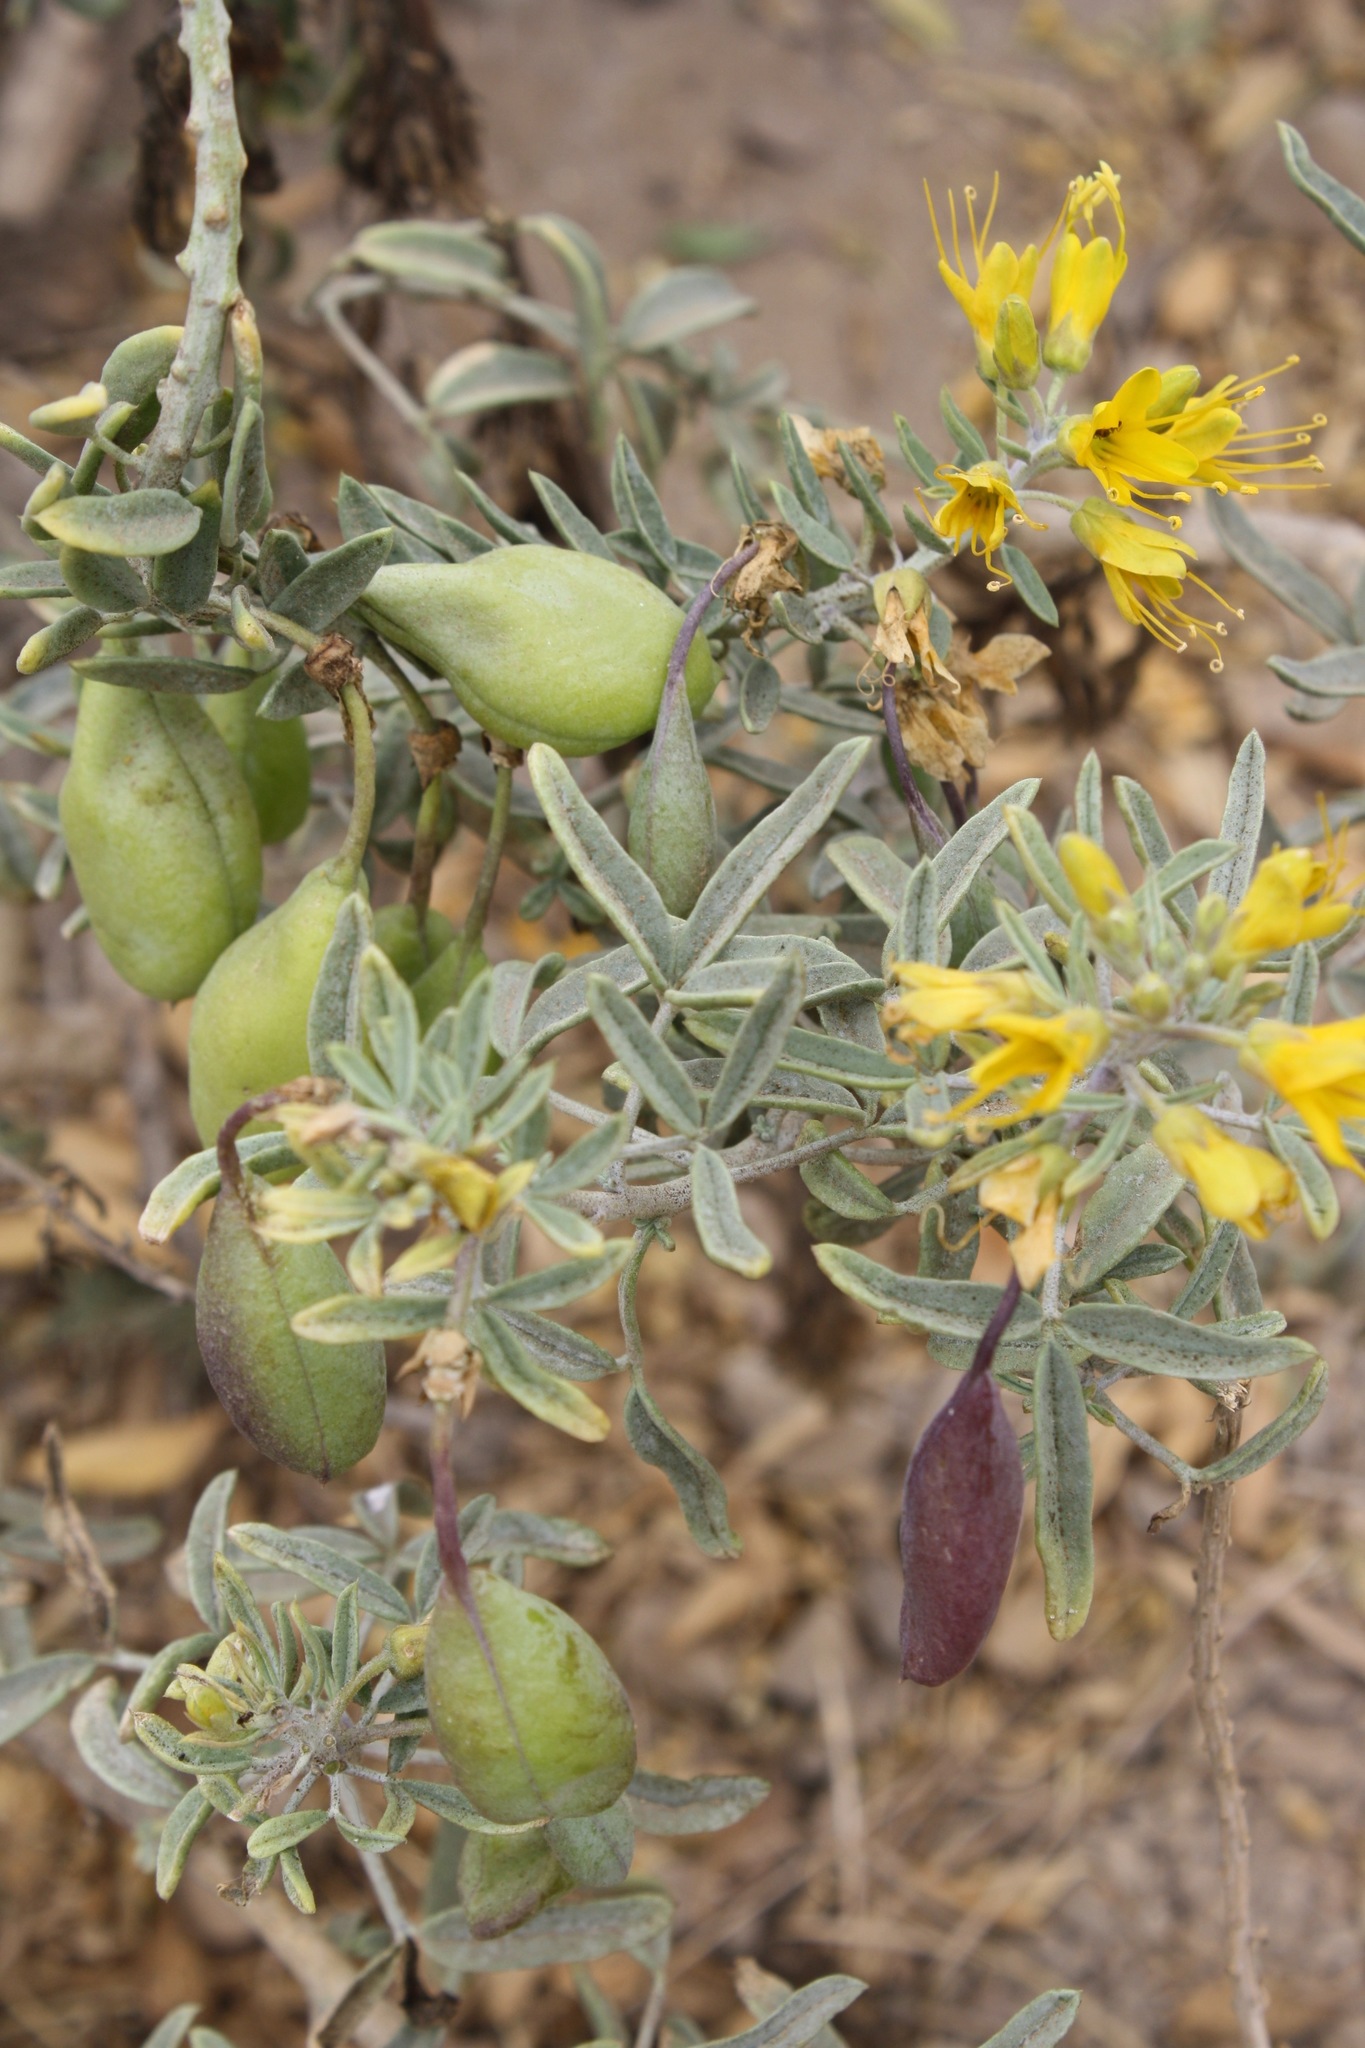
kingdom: Plantae
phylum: Tracheophyta
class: Magnoliopsida
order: Brassicales
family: Cleomaceae
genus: Cleomella
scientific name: Cleomella arborea
